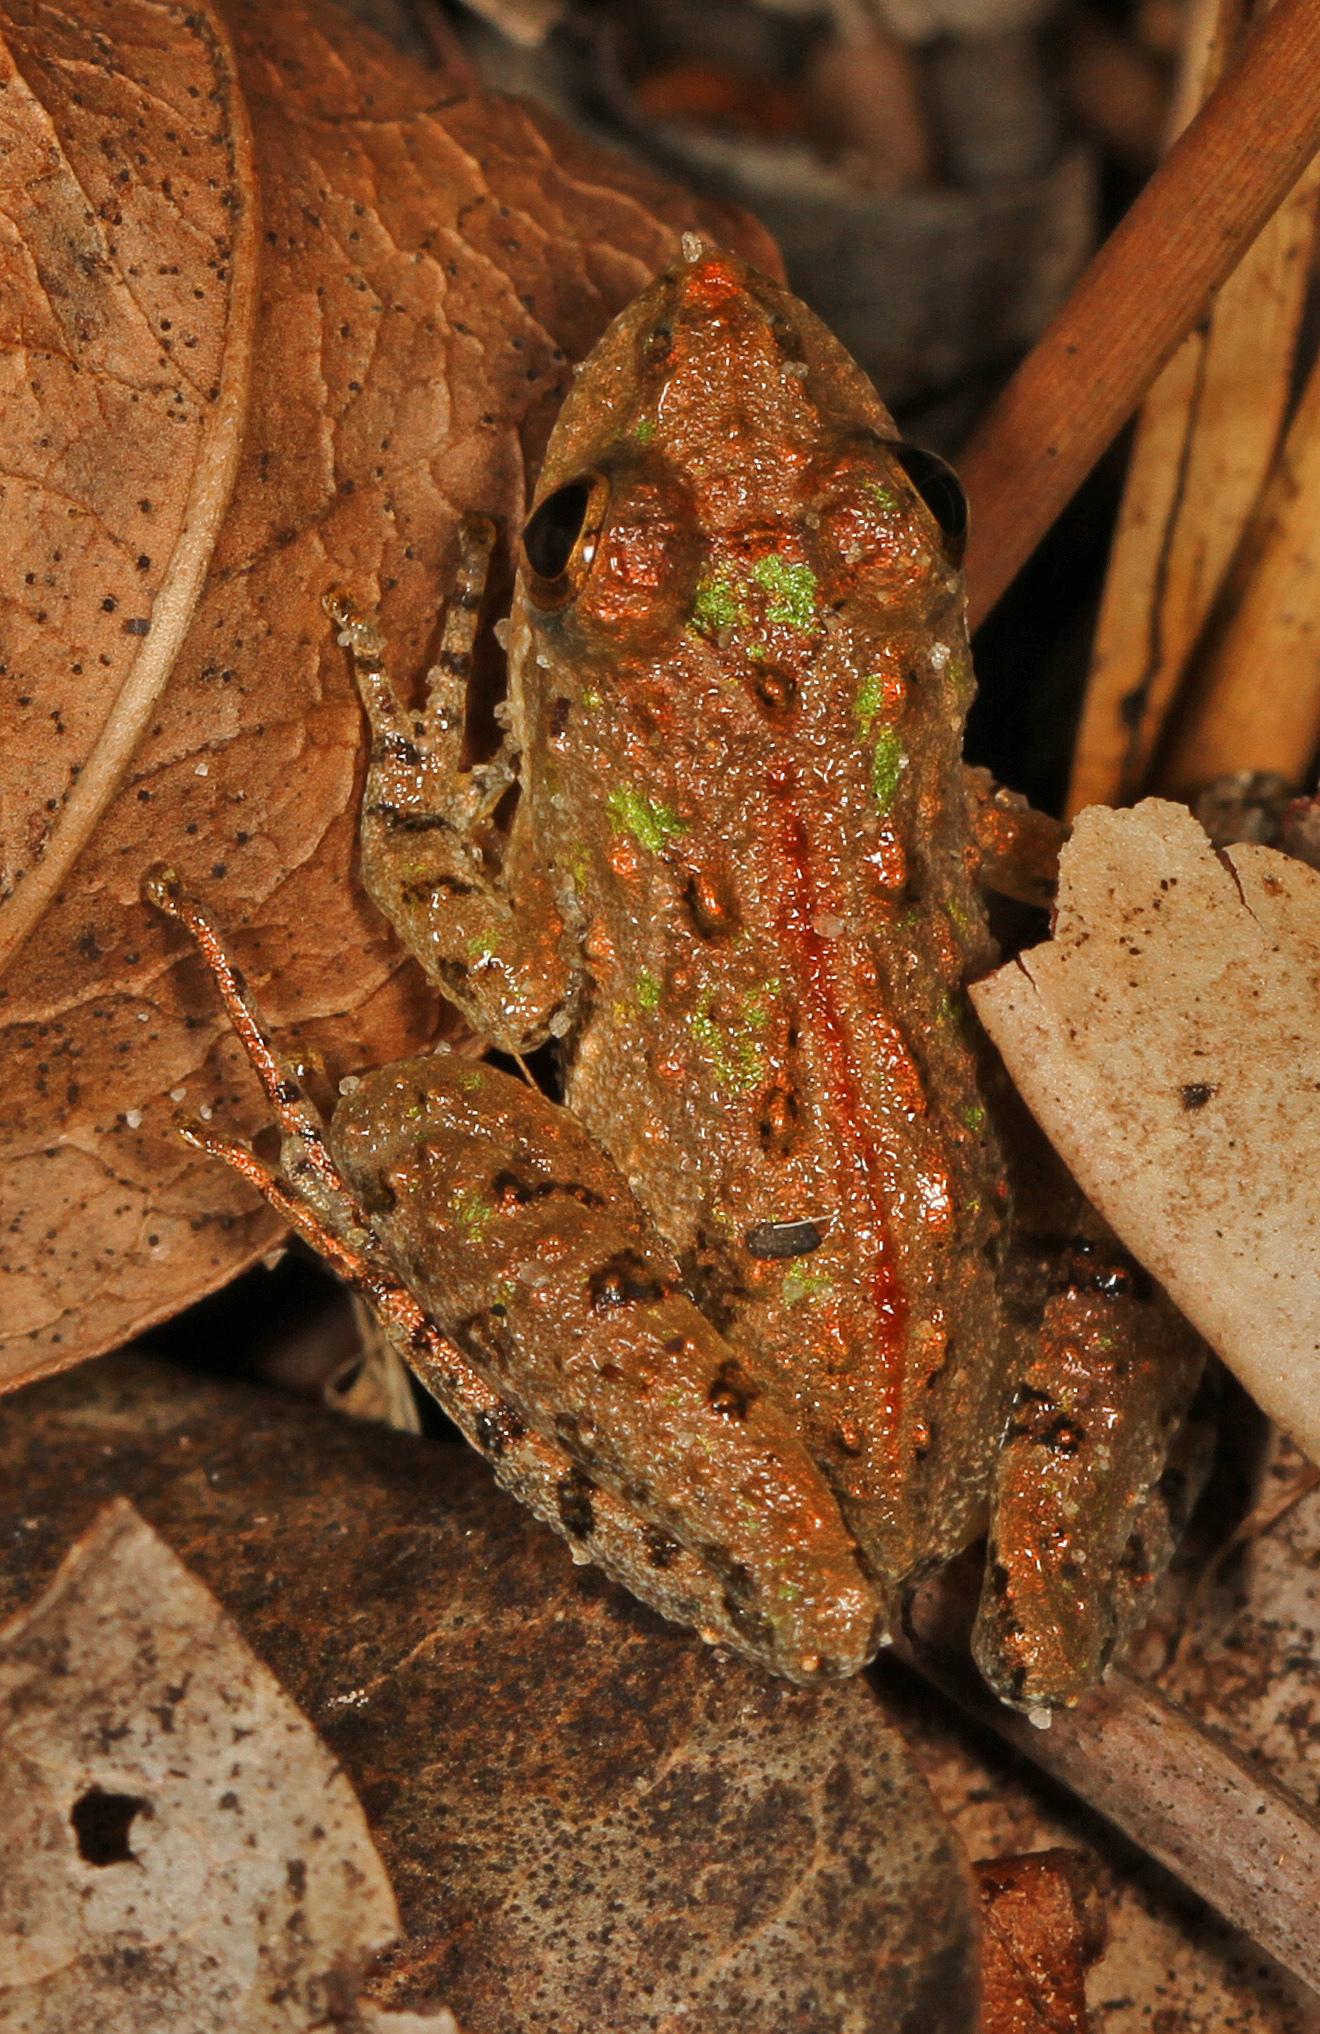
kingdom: Animalia
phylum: Chordata
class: Amphibia
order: Anura
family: Hylidae
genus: Acris
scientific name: Acris gryllus
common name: Southern cricket frog
